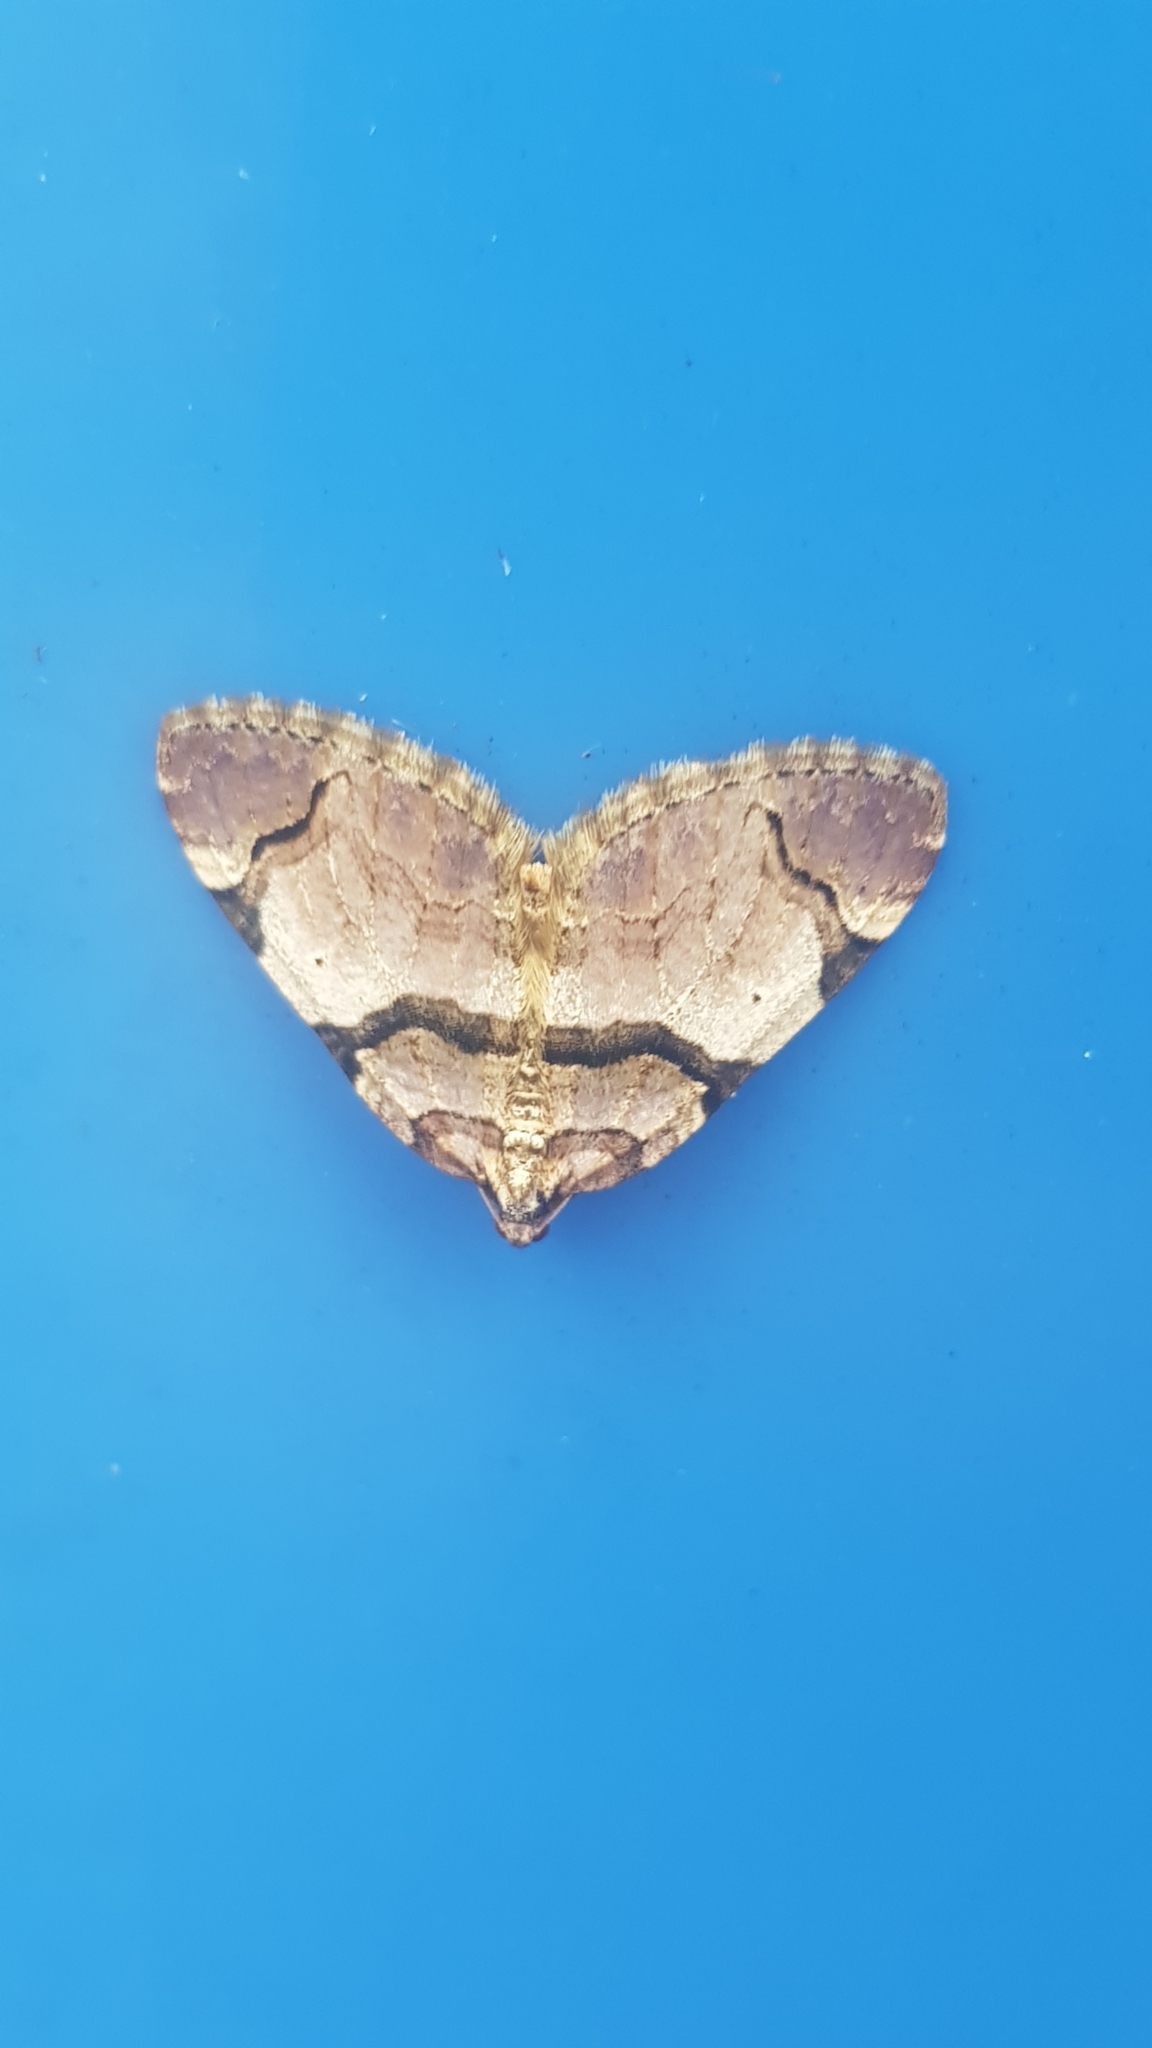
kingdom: Animalia
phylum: Arthropoda
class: Insecta
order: Lepidoptera
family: Geometridae
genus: Anticlea
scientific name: Anticlea derivata
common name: Streamer
